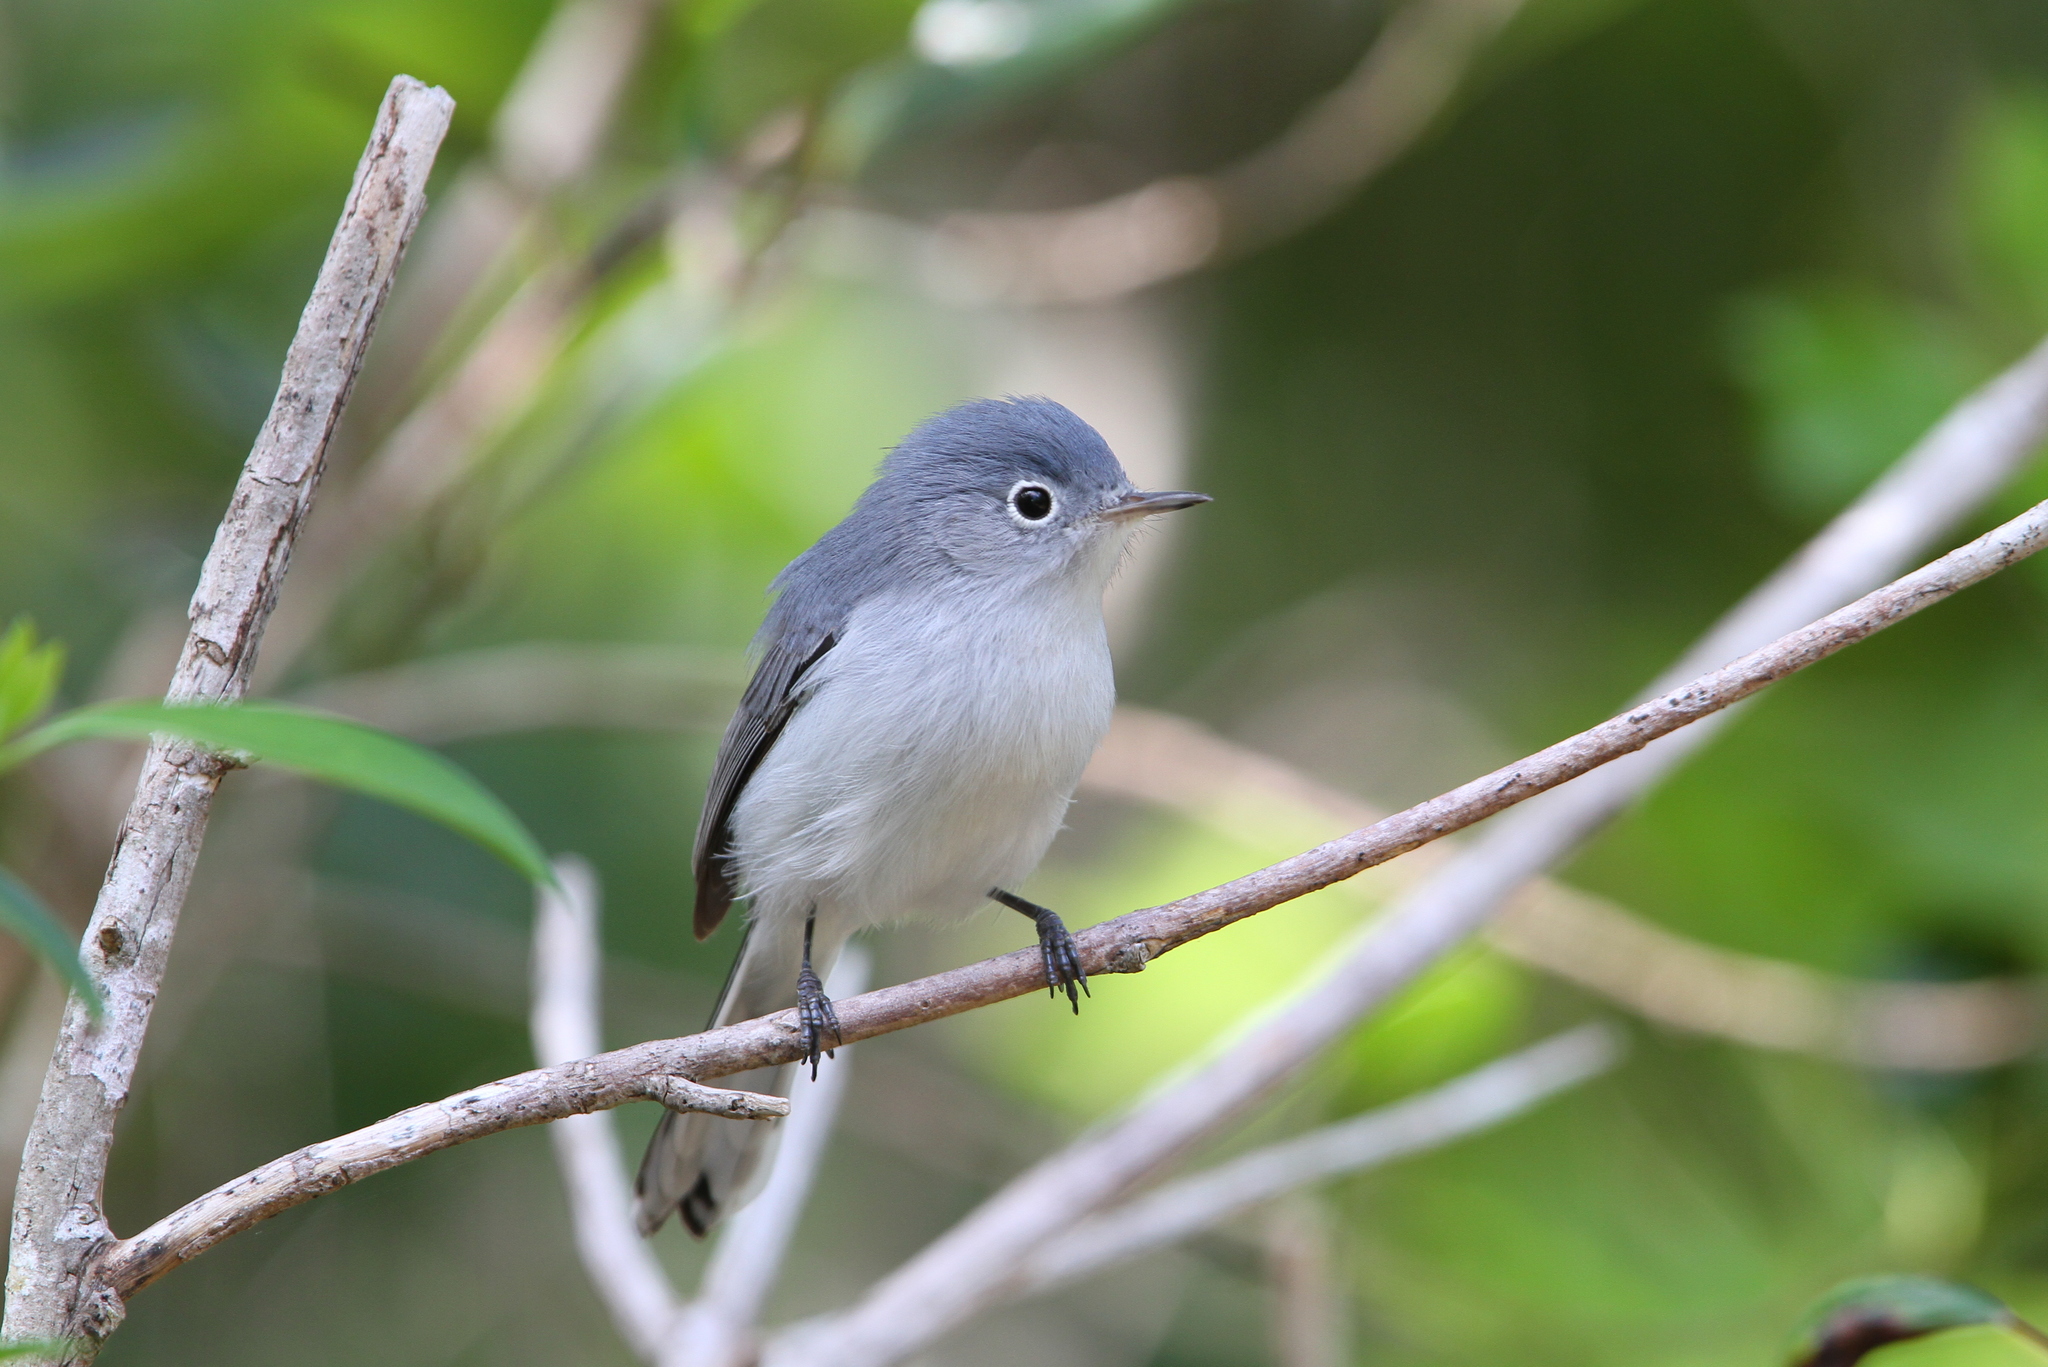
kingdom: Animalia
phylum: Chordata
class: Aves
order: Passeriformes
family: Polioptilidae
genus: Polioptila
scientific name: Polioptila caerulea
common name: Blue-gray gnatcatcher
